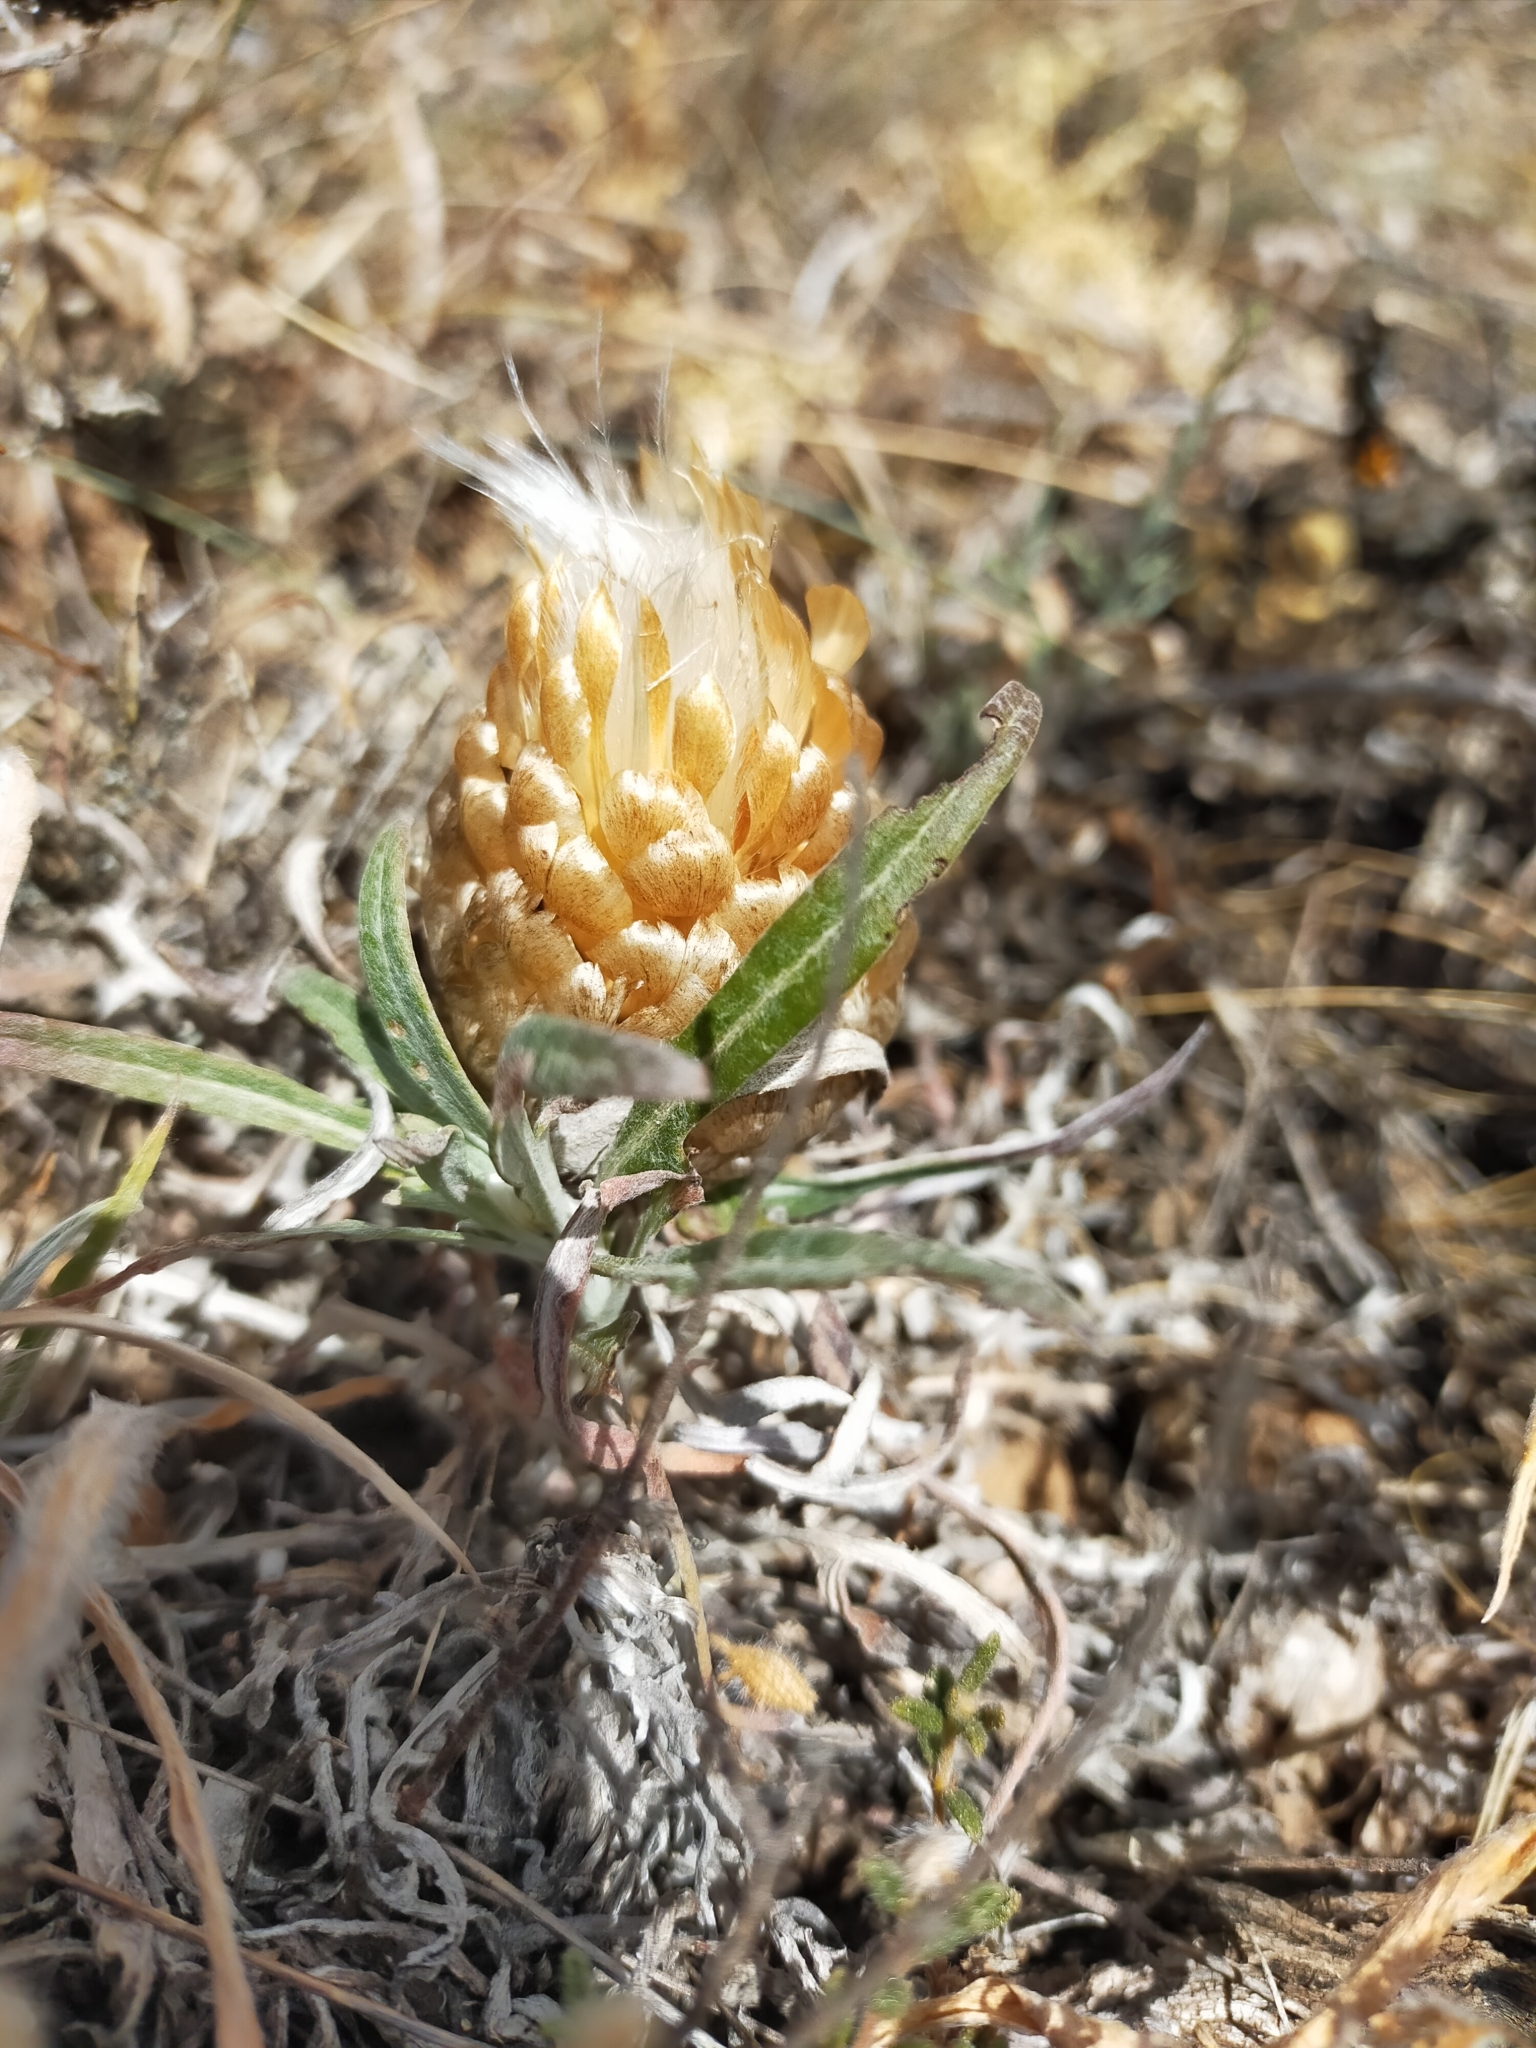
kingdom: Plantae
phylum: Tracheophyta
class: Magnoliopsida
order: Asterales
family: Asteraceae
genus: Leuzea
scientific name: Leuzea conifera
